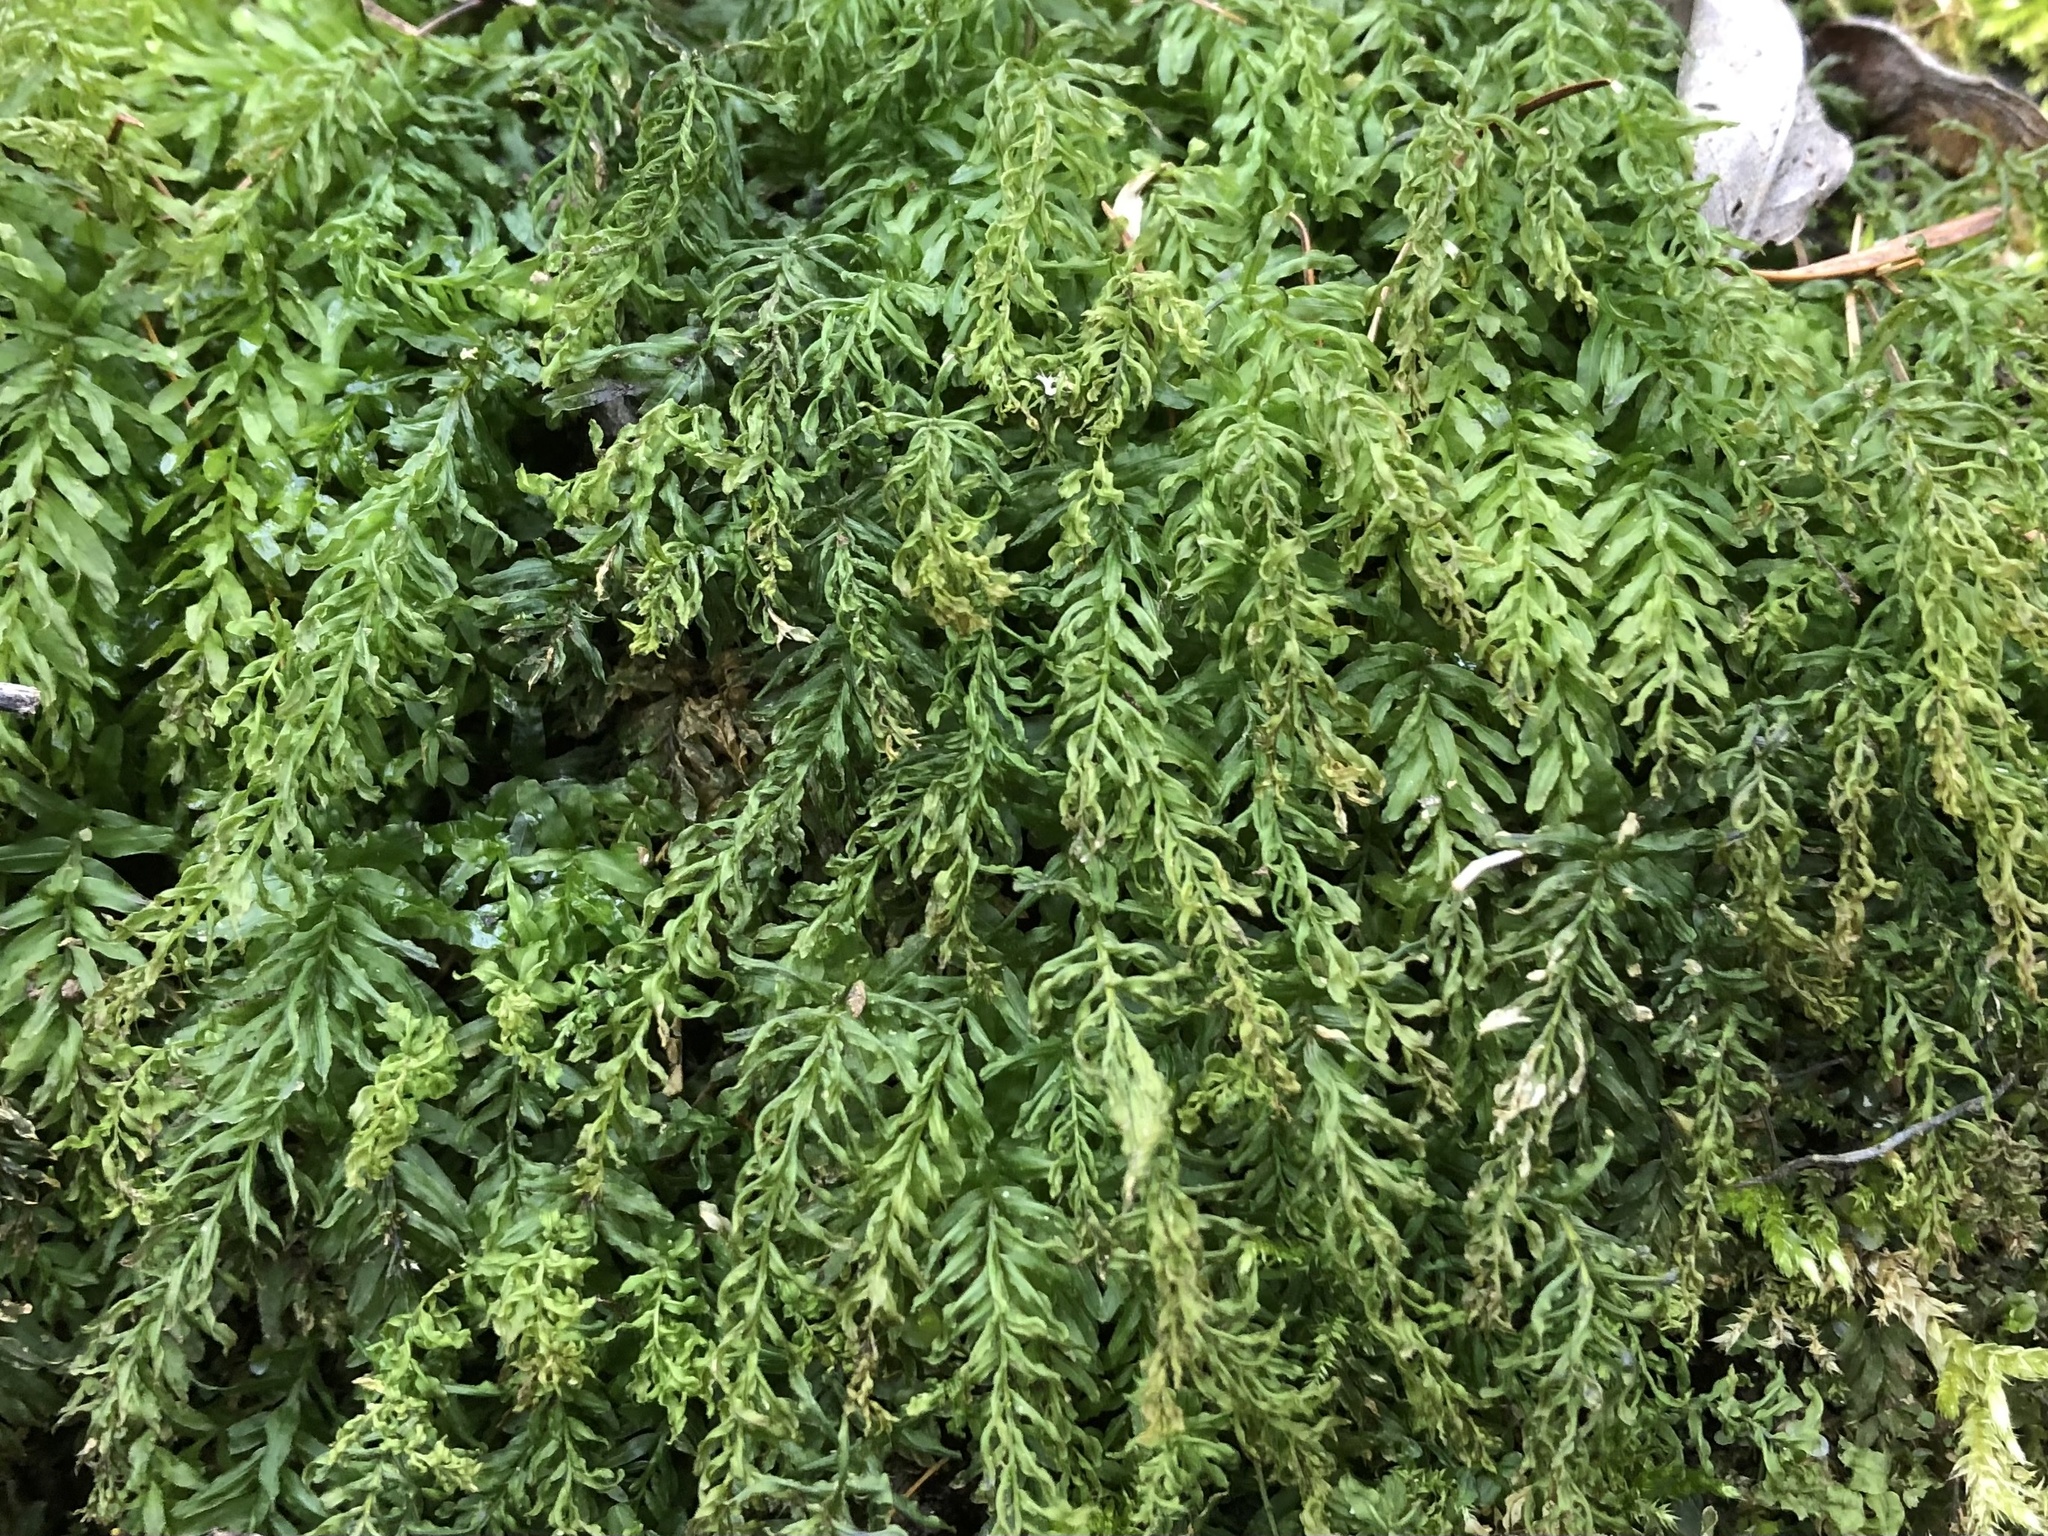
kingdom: Plantae
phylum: Bryophyta
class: Bryopsida
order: Bryales
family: Mniaceae
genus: Plagiomnium
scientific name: Plagiomnium undulatum
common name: Hart's-tongue thyme-moss
